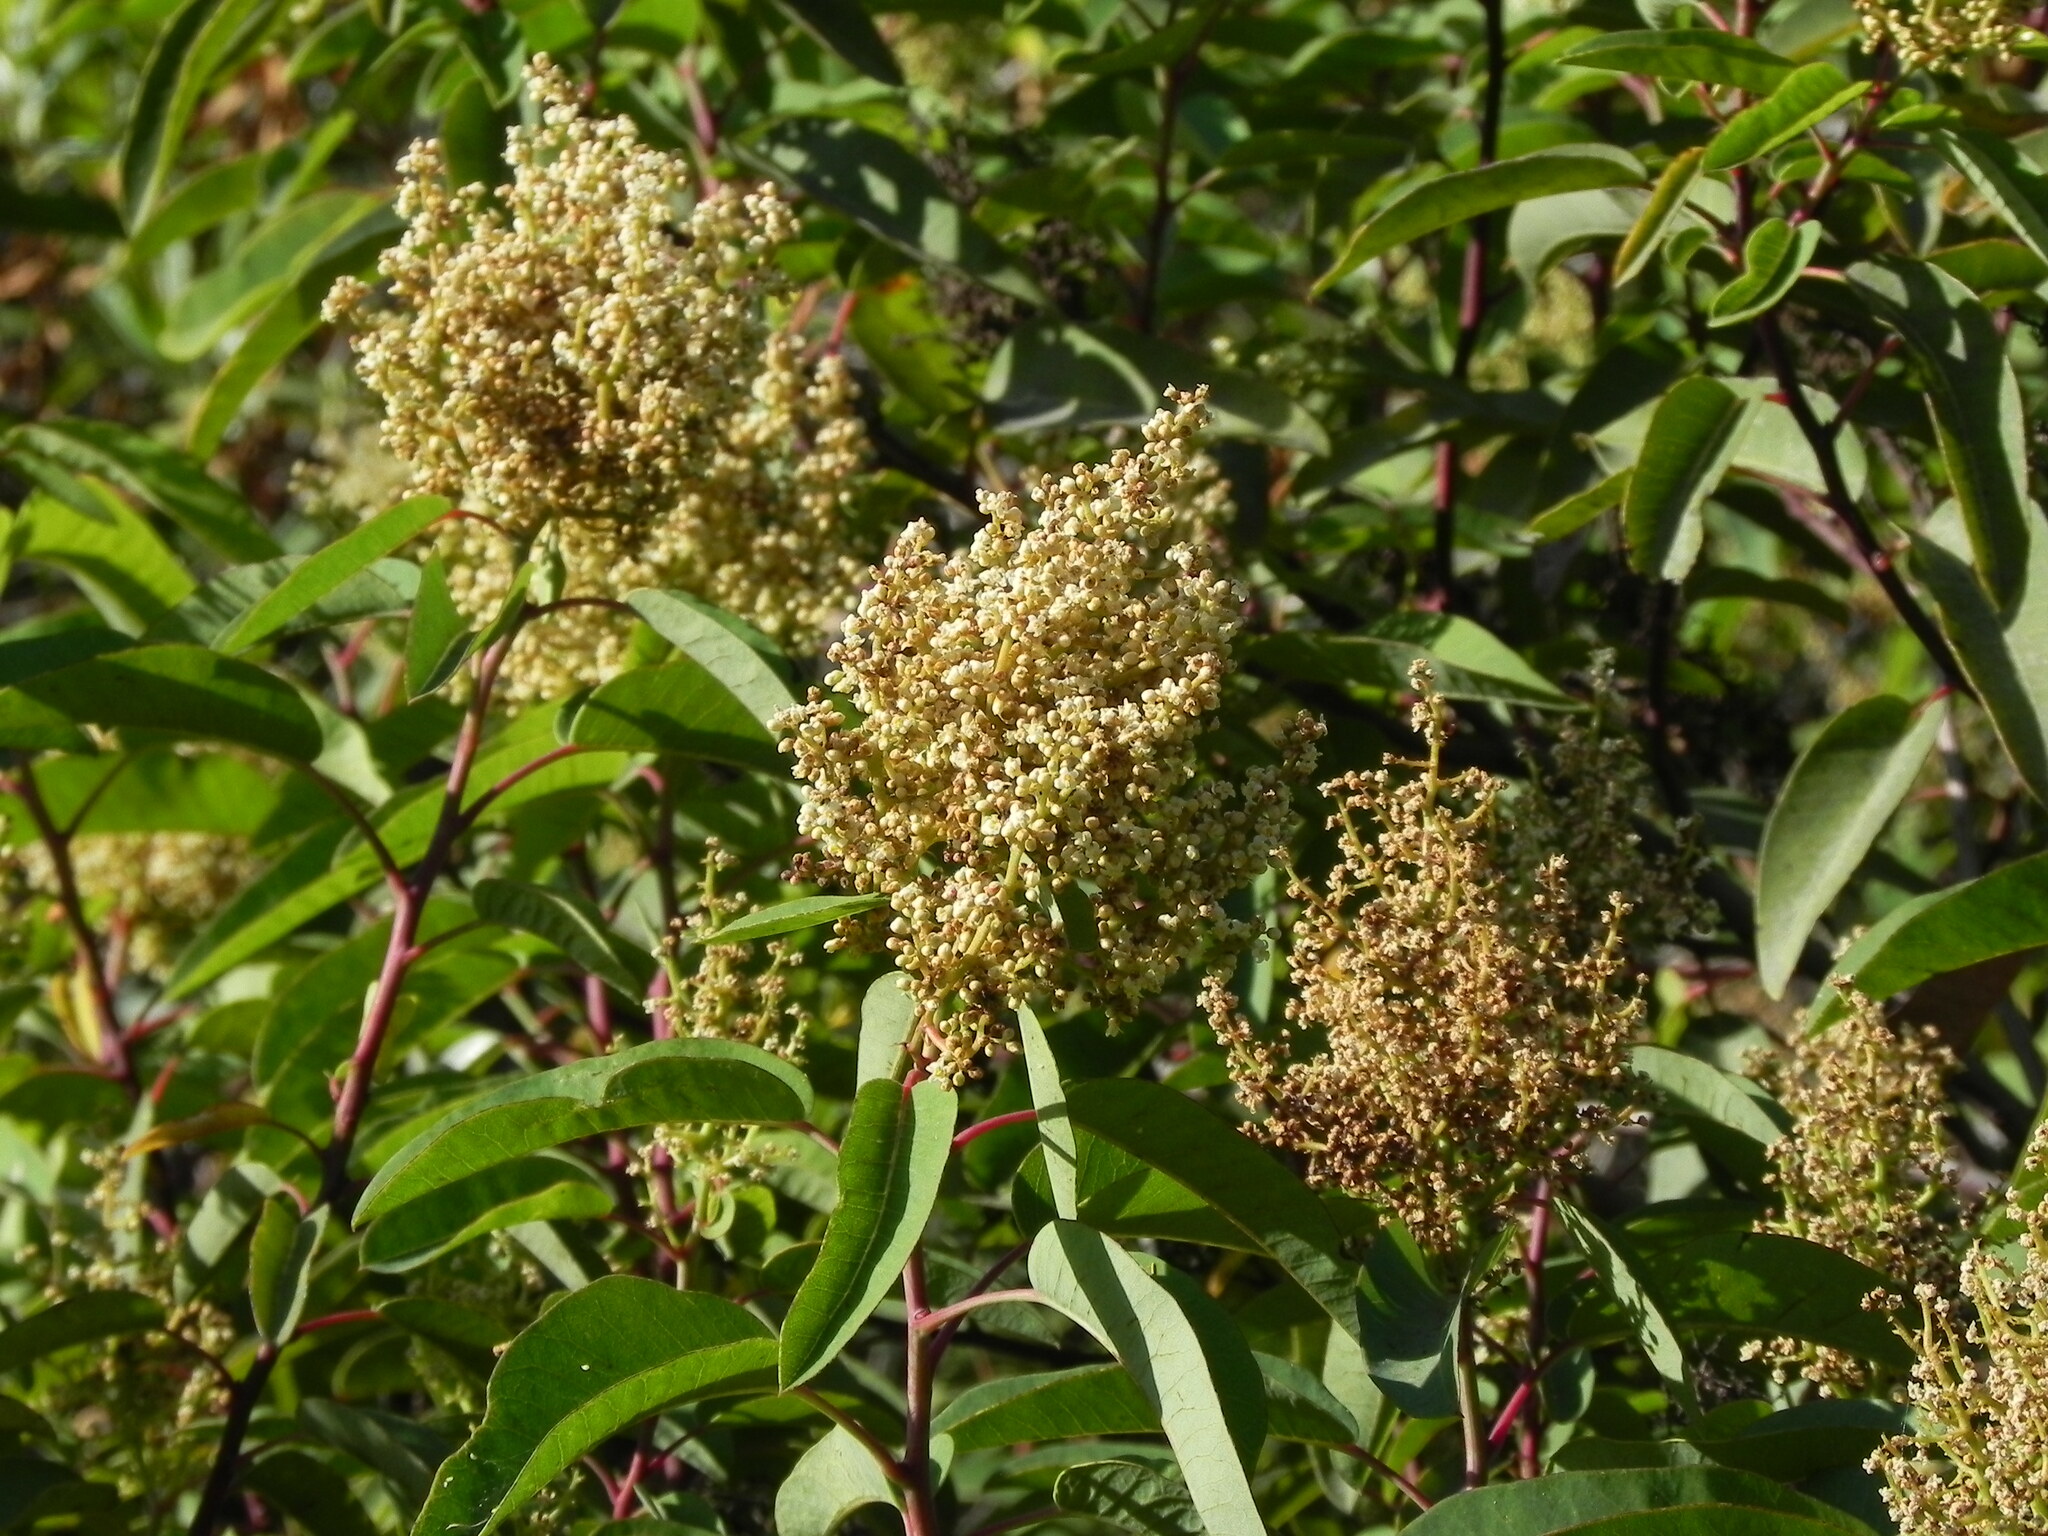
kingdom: Plantae
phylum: Tracheophyta
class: Magnoliopsida
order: Sapindales
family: Anacardiaceae
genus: Malosma
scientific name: Malosma laurina
